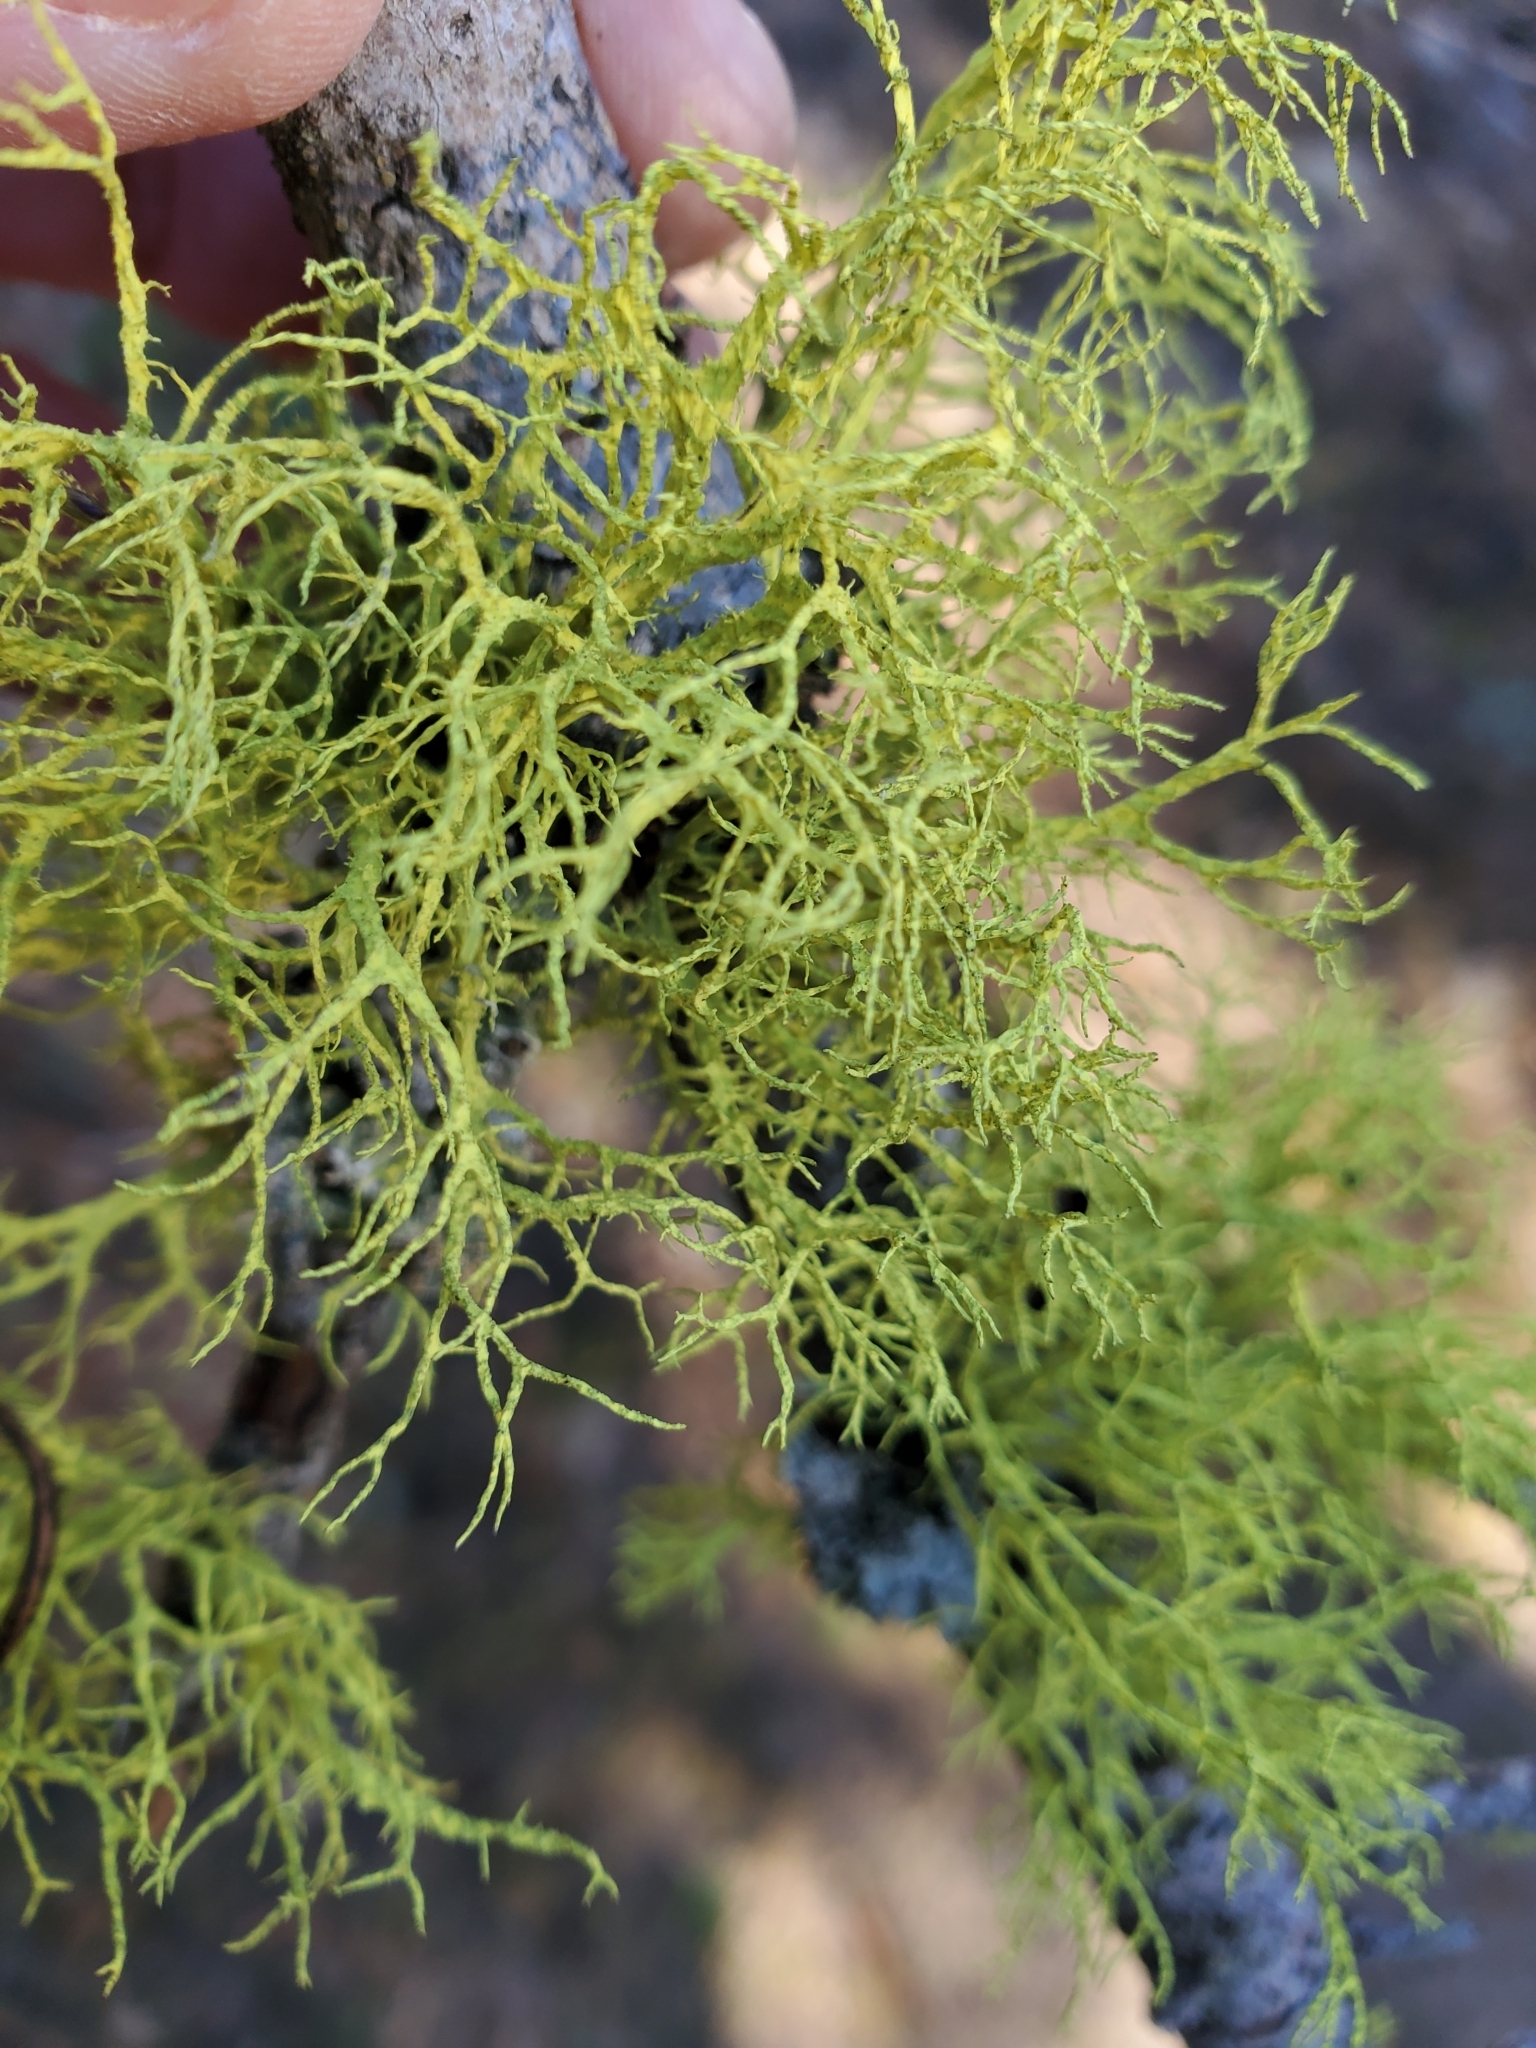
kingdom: Fungi
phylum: Ascomycota
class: Lecanoromycetes
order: Lecanorales
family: Parmeliaceae
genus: Letharia
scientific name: Letharia vulpina
